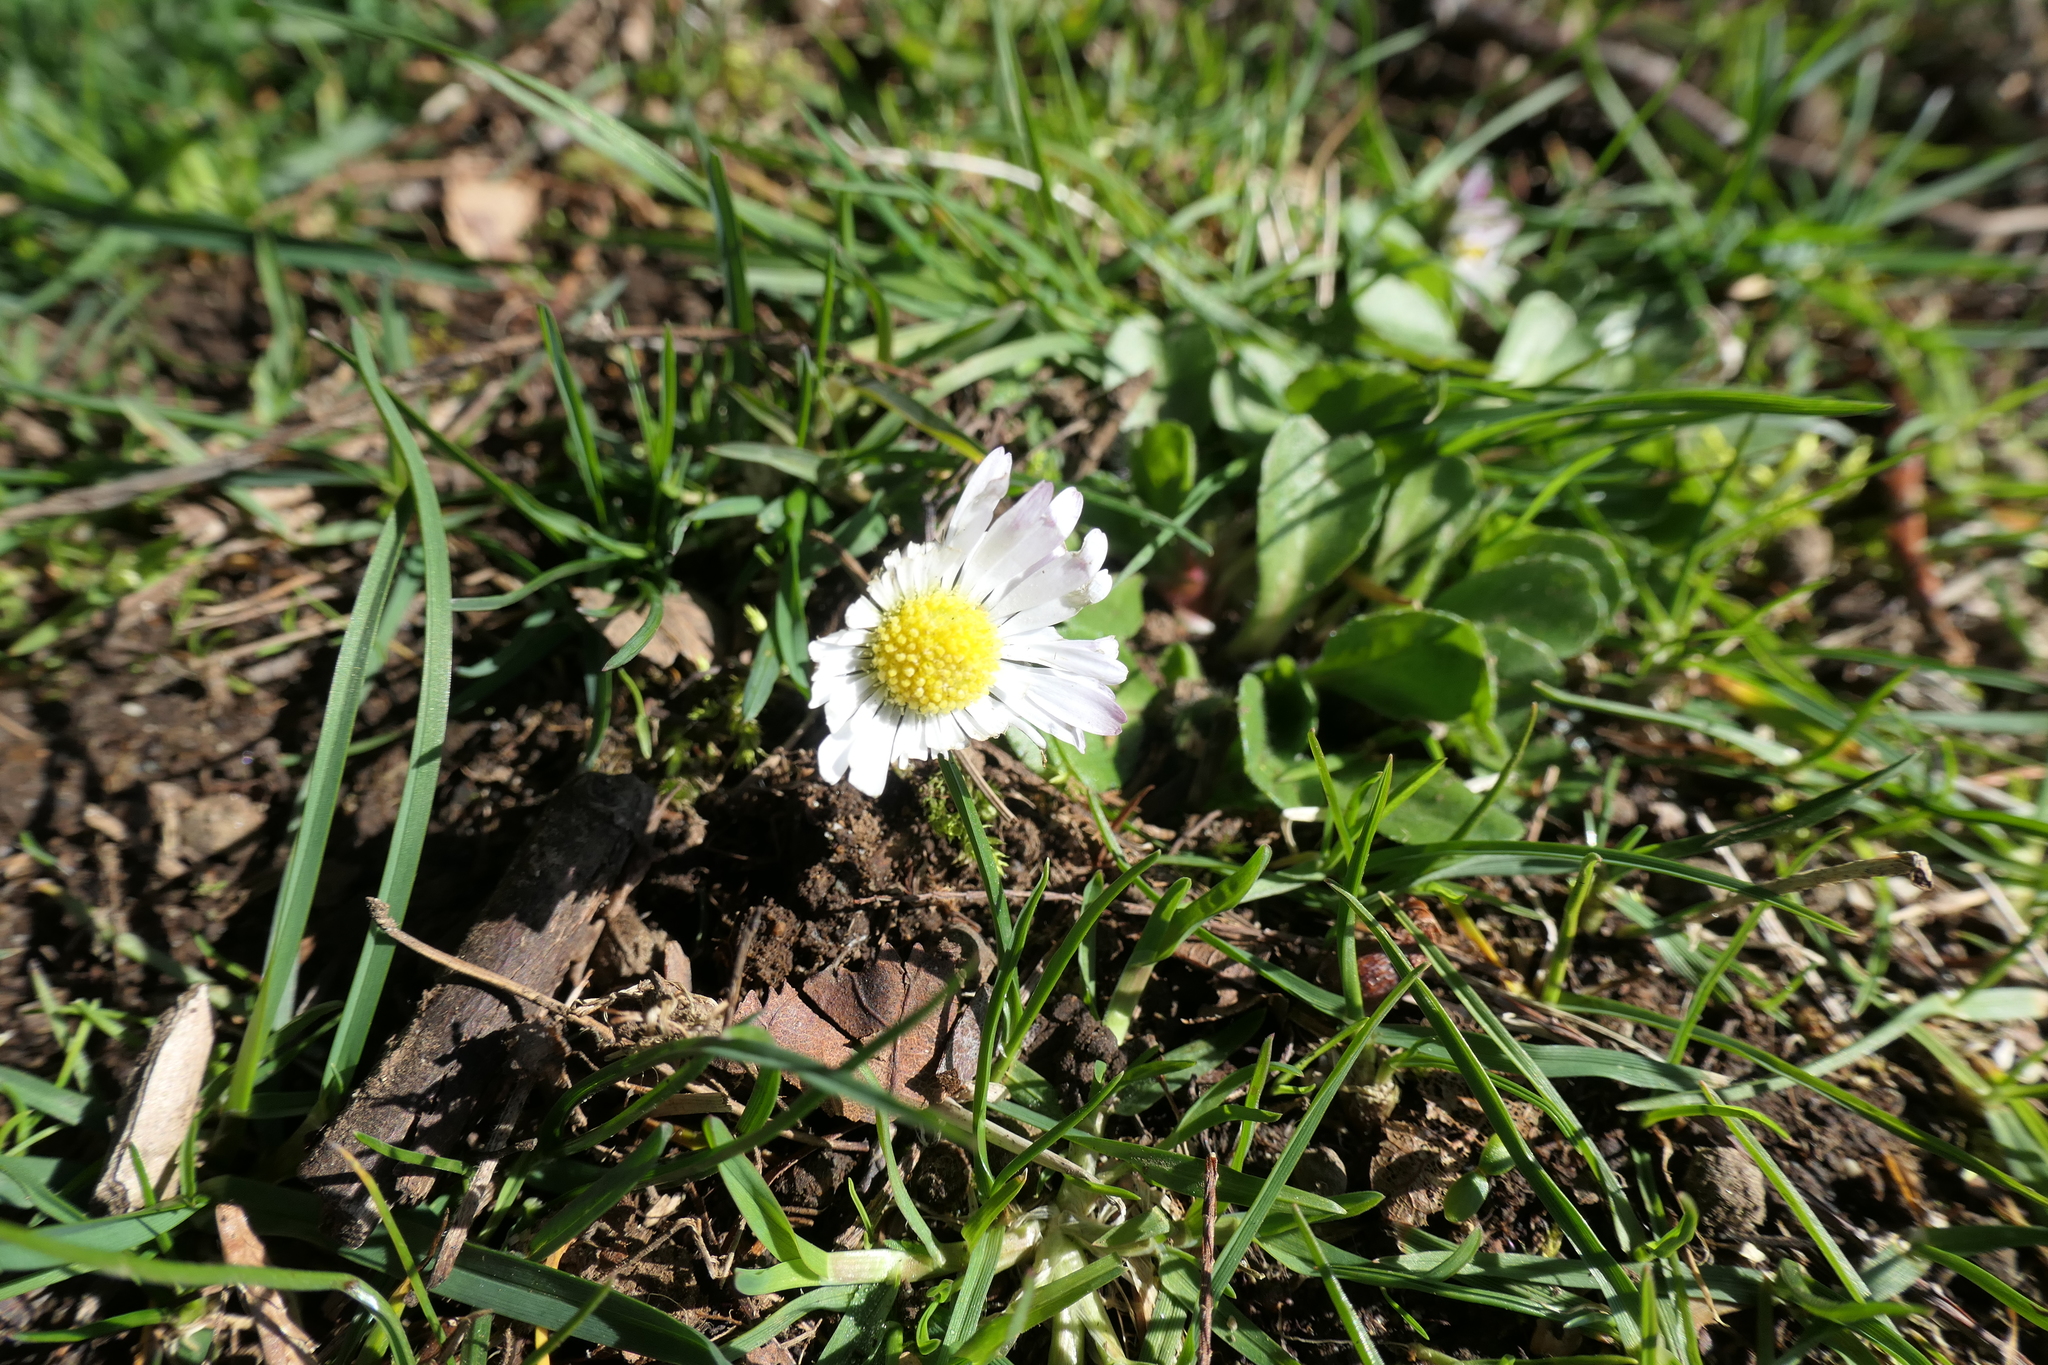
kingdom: Plantae
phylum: Tracheophyta
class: Magnoliopsida
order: Asterales
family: Asteraceae
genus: Bellis
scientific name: Bellis perennis
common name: Lawndaisy
